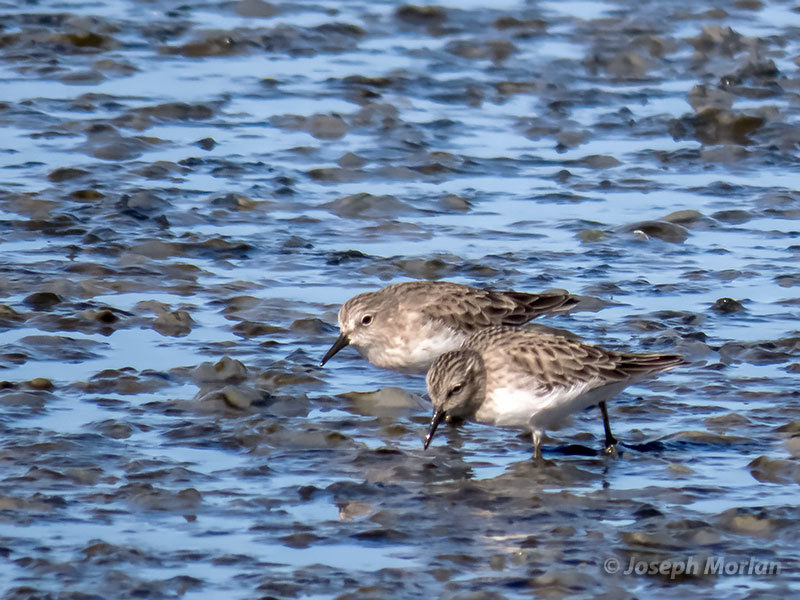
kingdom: Animalia
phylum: Chordata
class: Aves
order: Charadriiformes
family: Scolopacidae
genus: Calidris
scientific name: Calidris minutilla
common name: Least sandpiper
